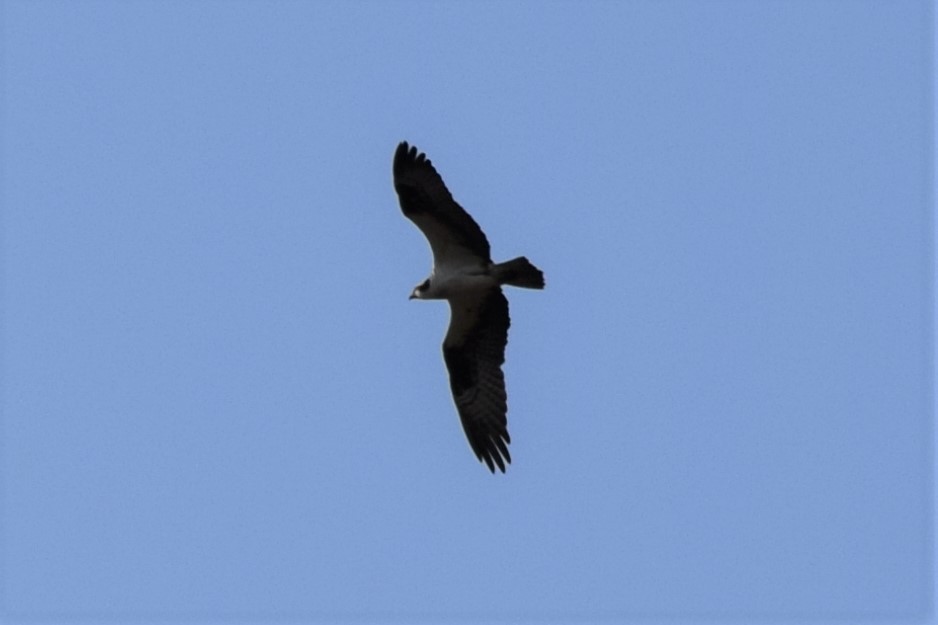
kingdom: Animalia
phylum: Chordata
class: Aves
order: Accipitriformes
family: Pandionidae
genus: Pandion
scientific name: Pandion haliaetus
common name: Osprey
